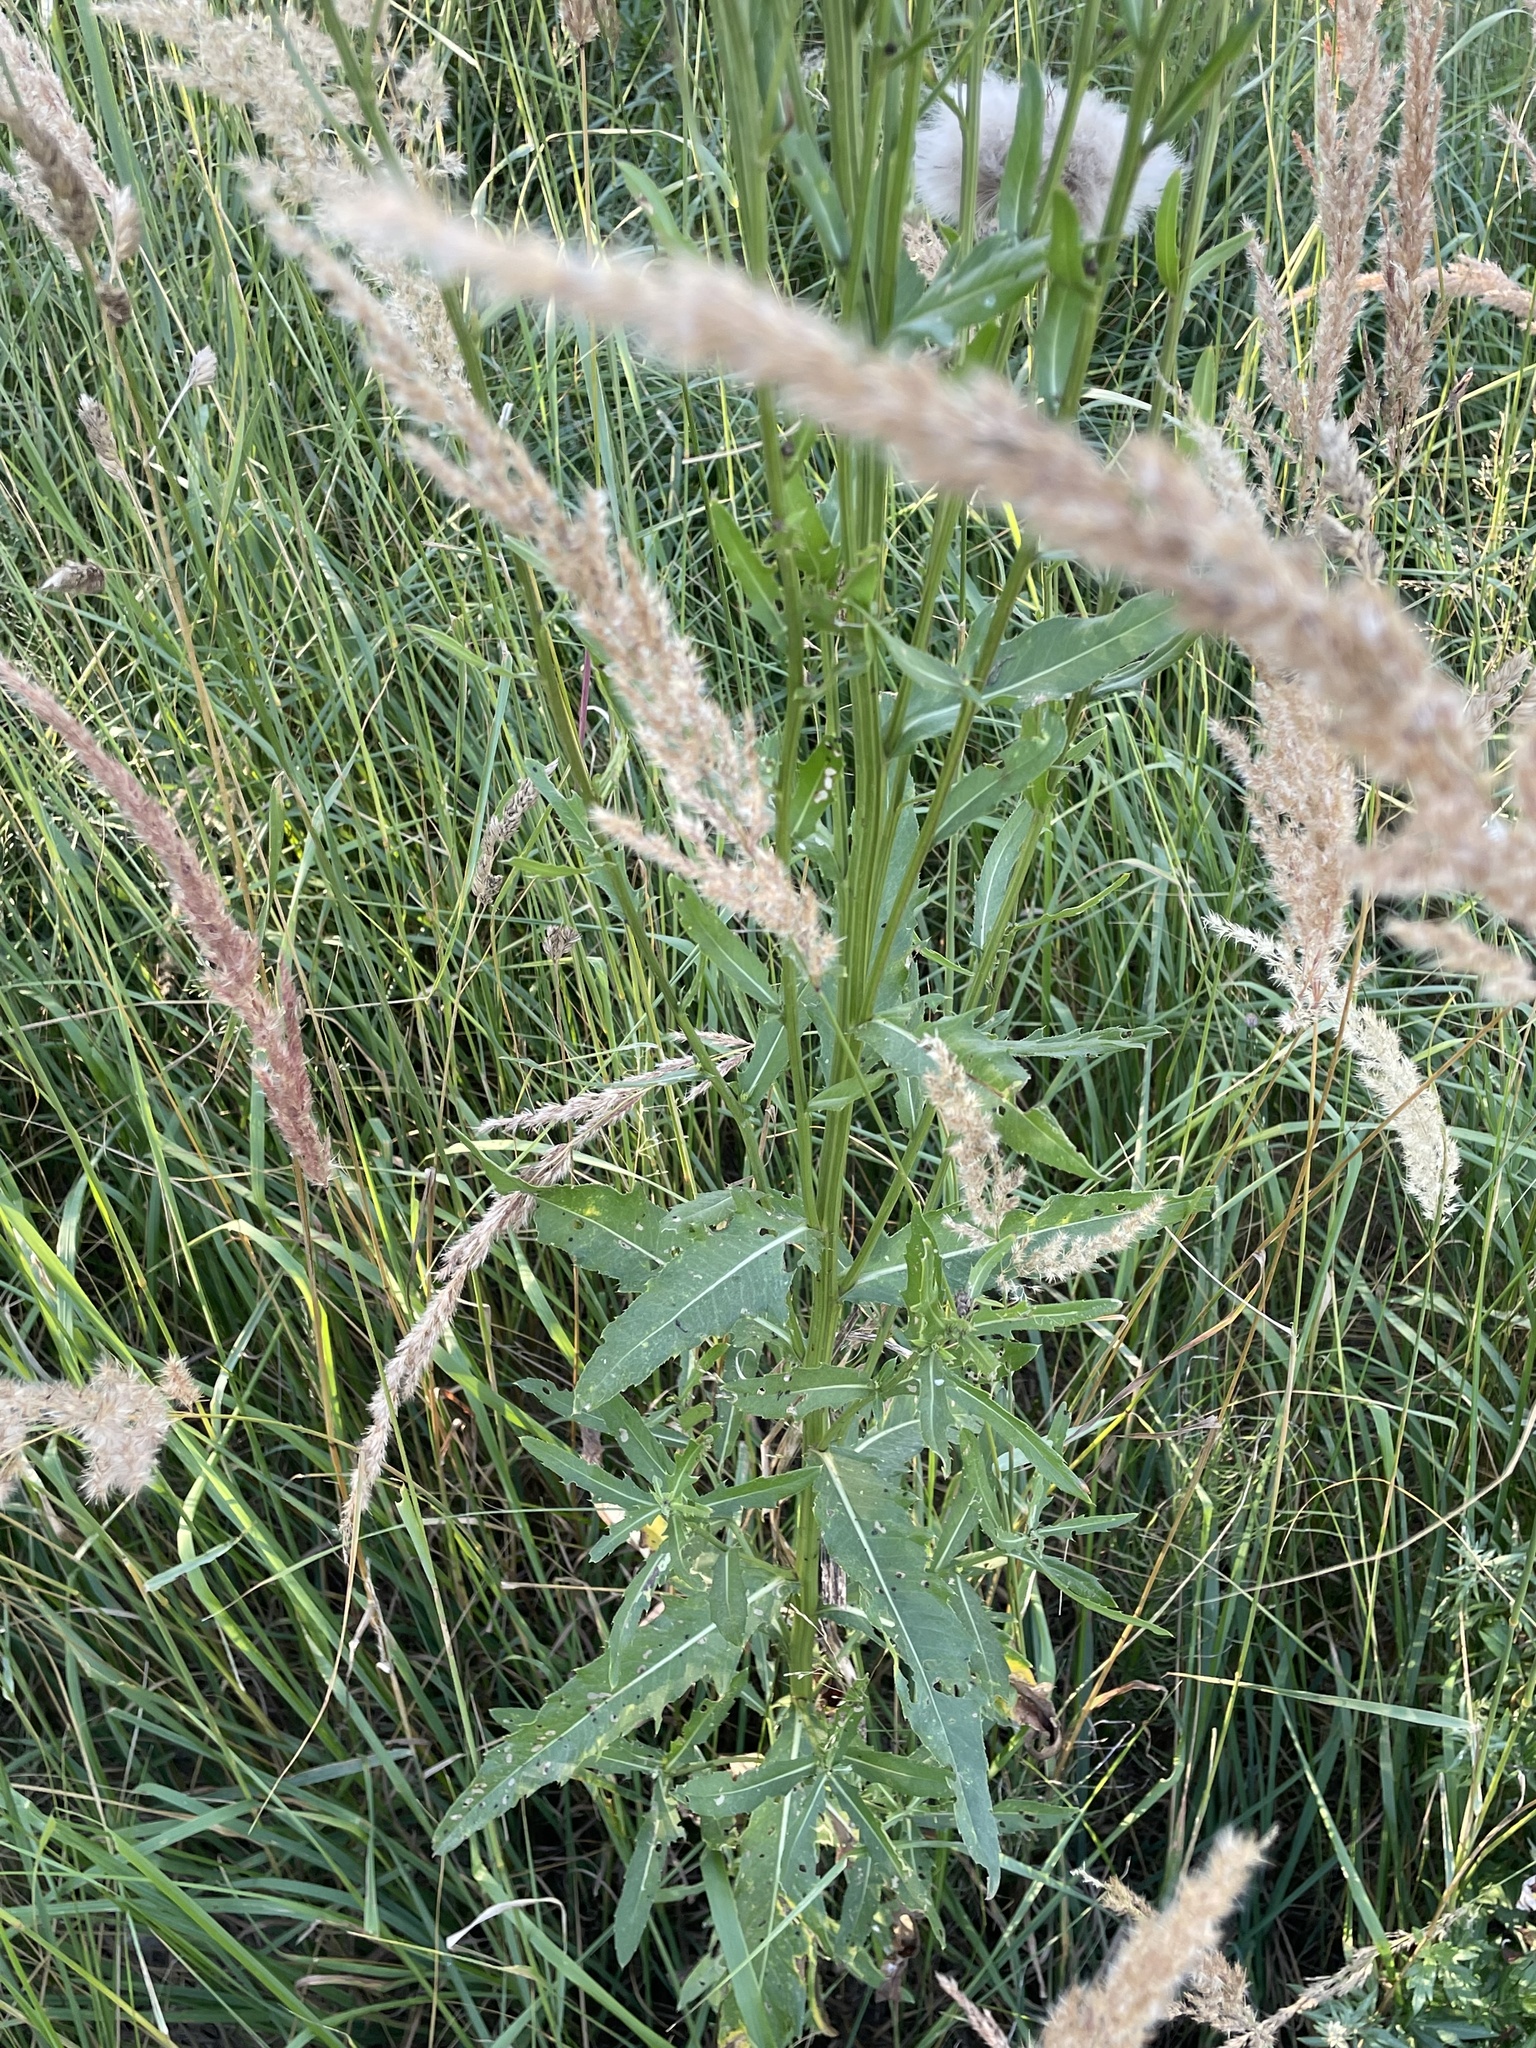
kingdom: Plantae
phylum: Tracheophyta
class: Magnoliopsida
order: Asterales
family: Asteraceae
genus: Cirsium
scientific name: Cirsium arvense
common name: Creeping thistle
